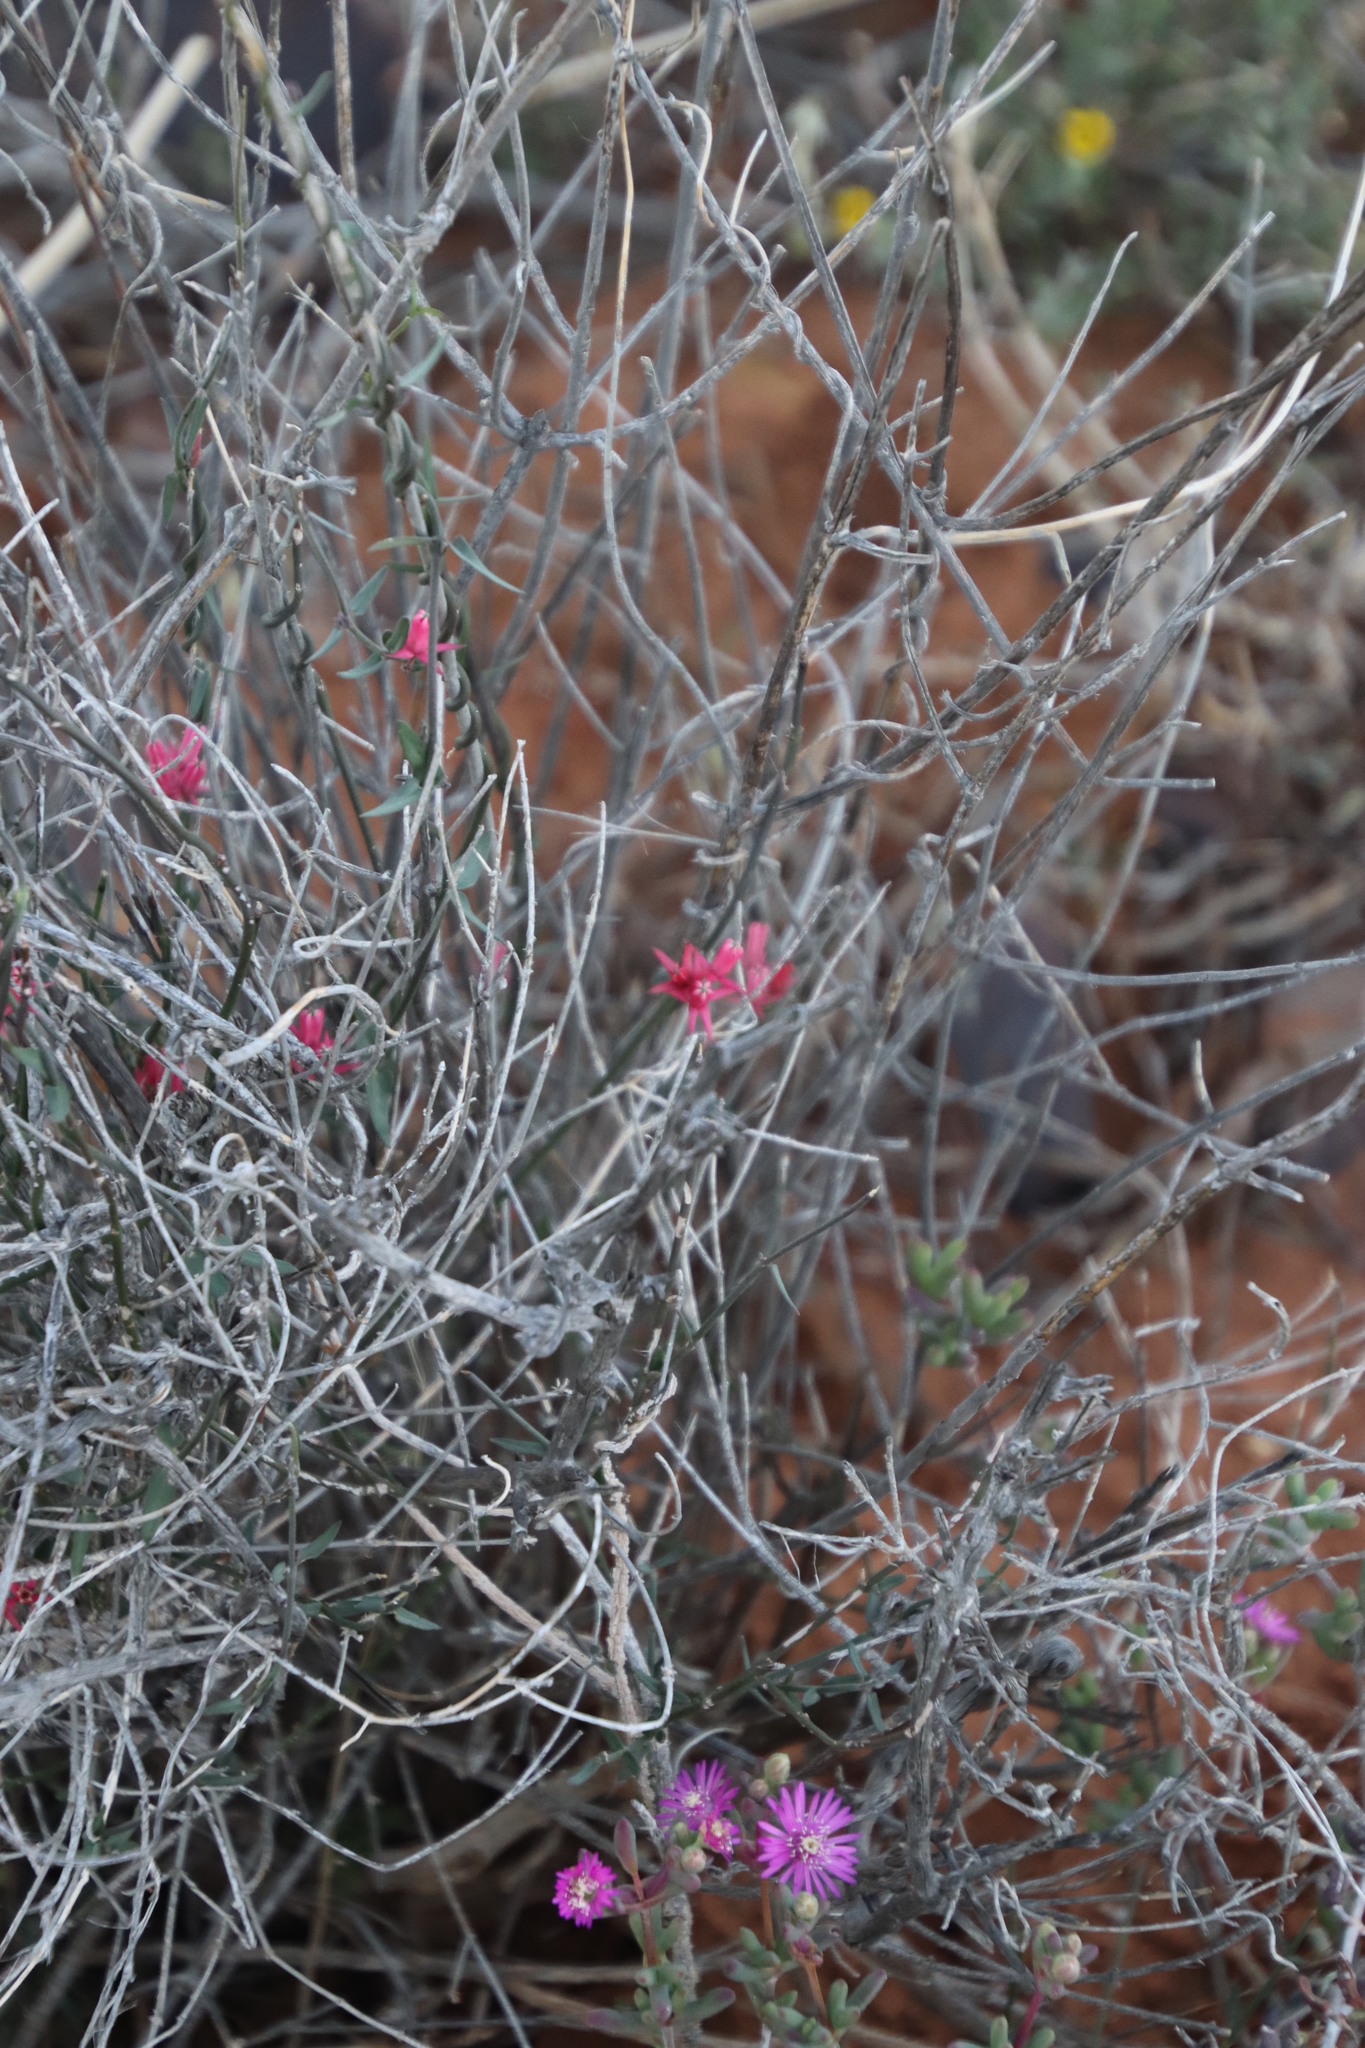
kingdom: Plantae
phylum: Tracheophyta
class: Magnoliopsida
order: Gentianales
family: Apocynaceae
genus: Microloma
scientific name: Microloma sagittatum
